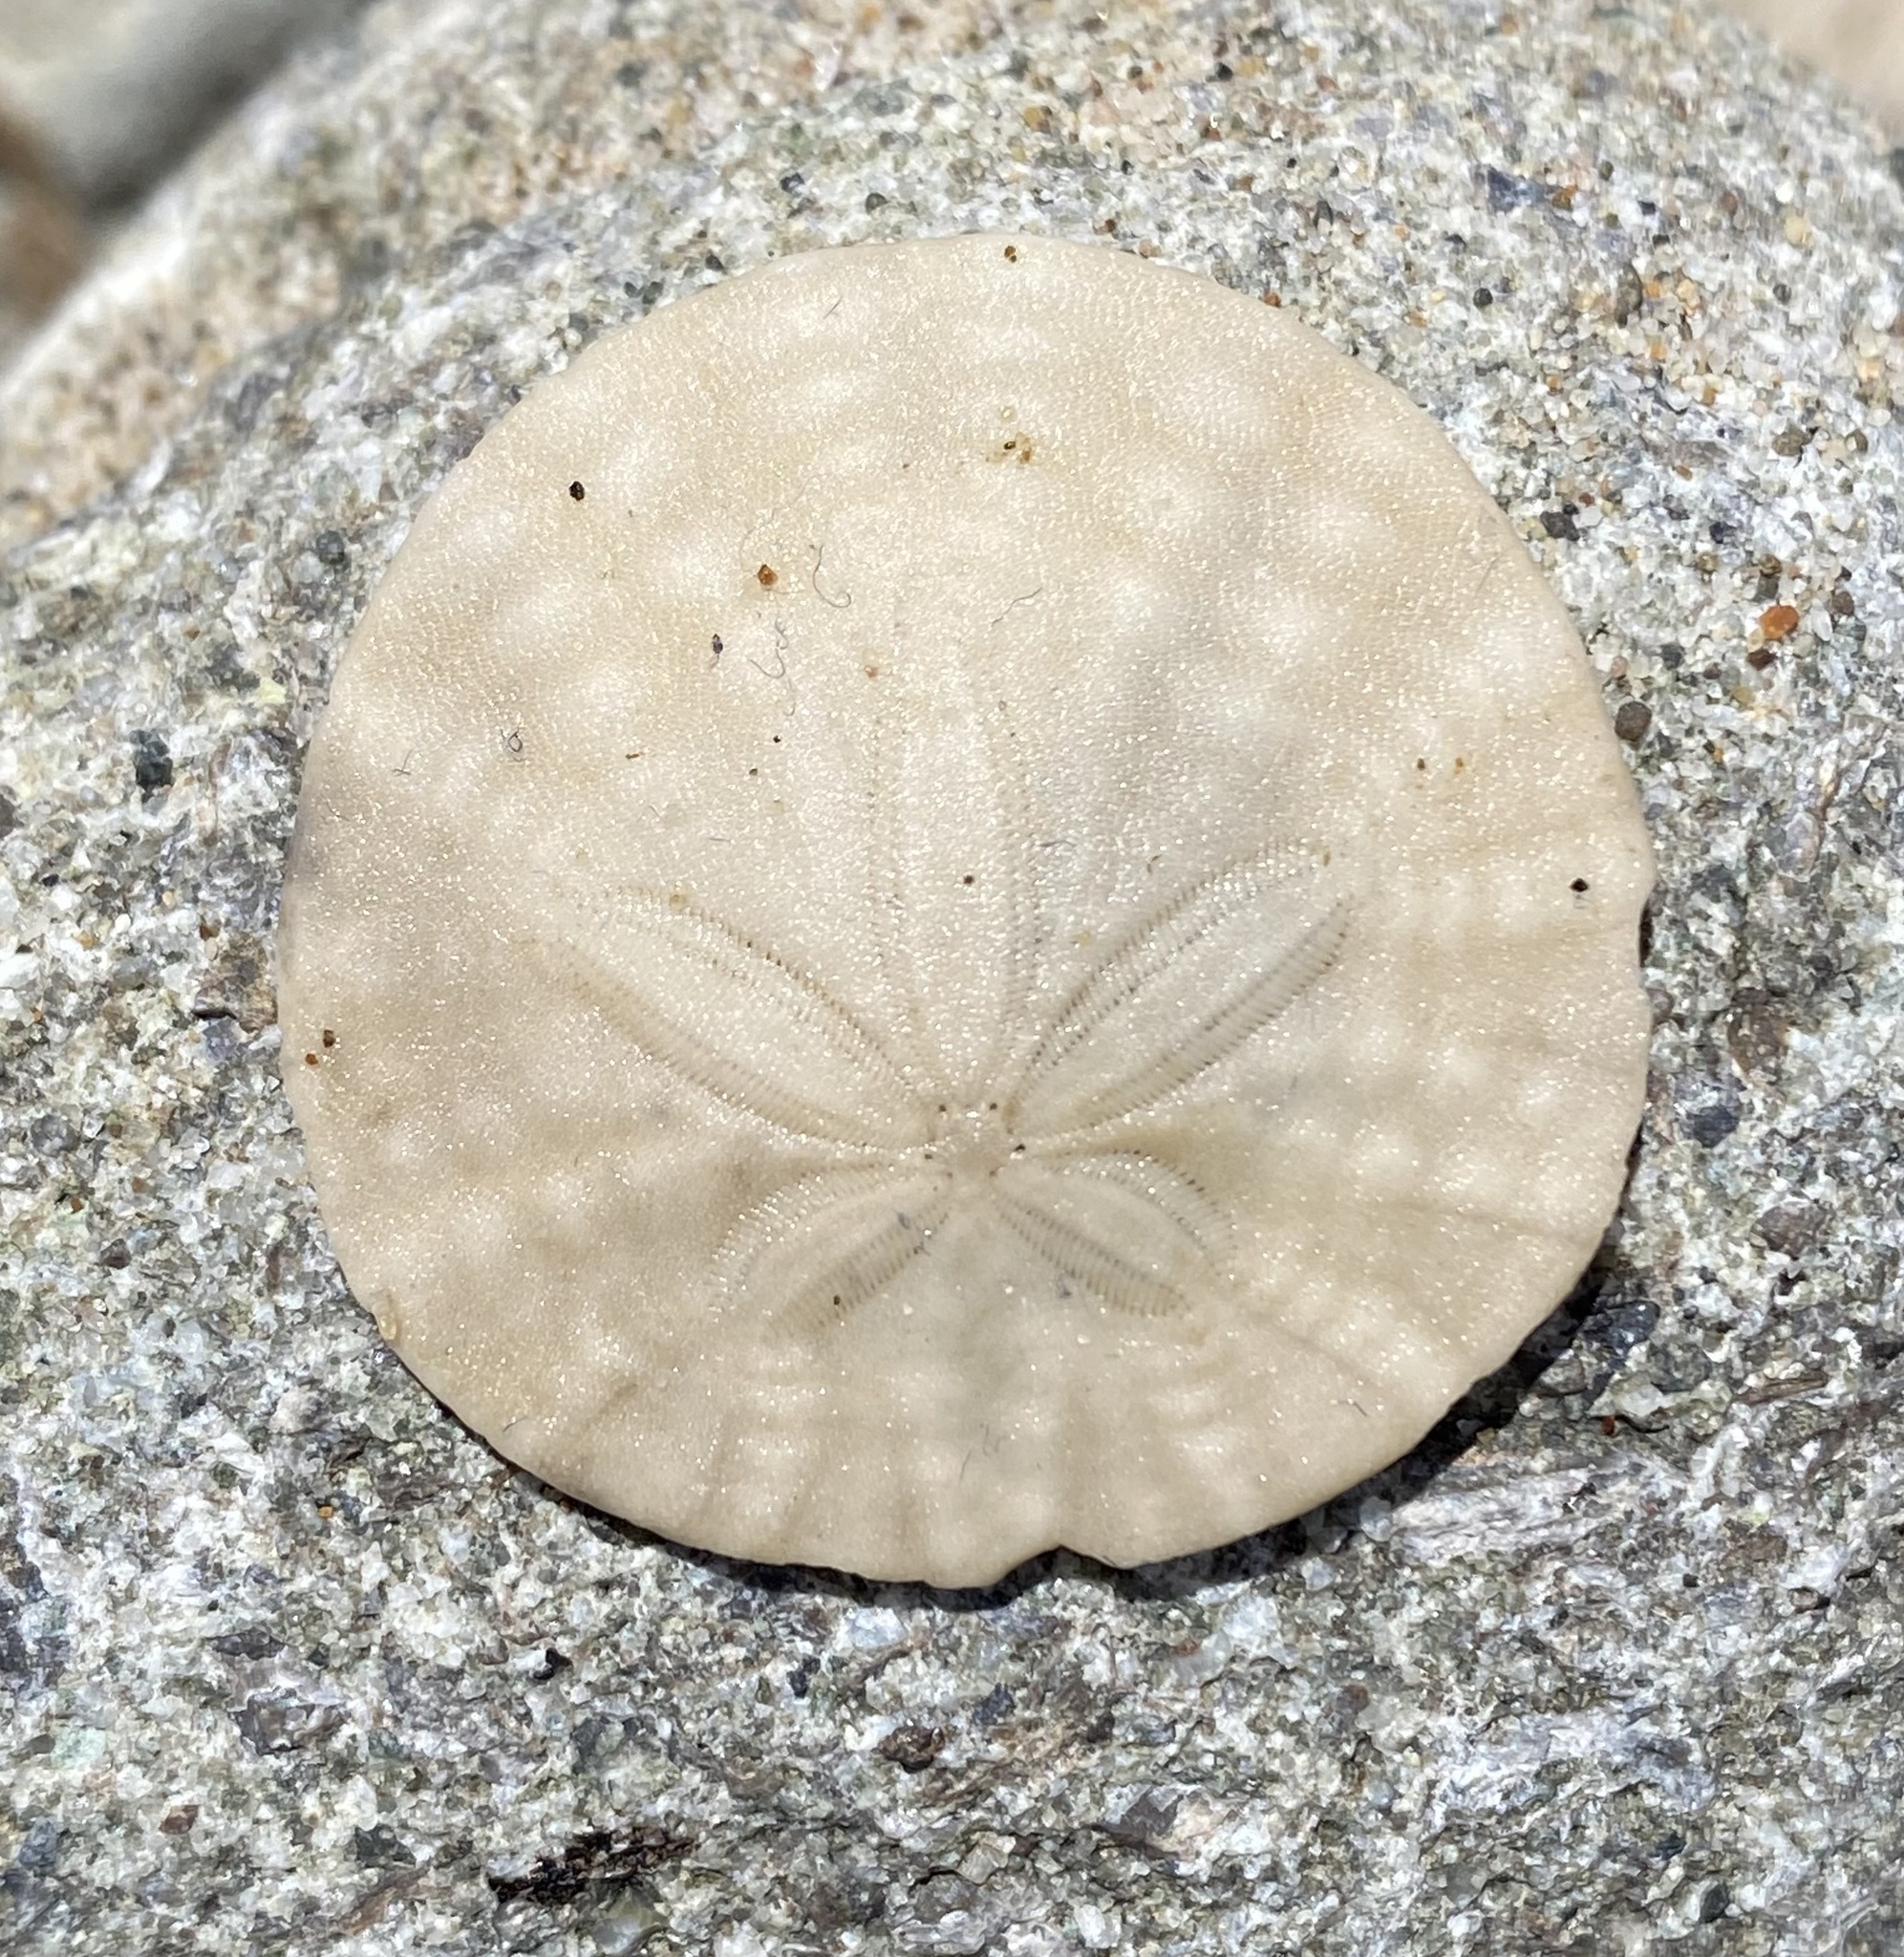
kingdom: Animalia
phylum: Echinodermata
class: Echinoidea
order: Echinolampadacea
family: Dendrasteridae
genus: Dendraster
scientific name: Dendraster excentricus
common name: Eccentric sand dollar sea urchin
